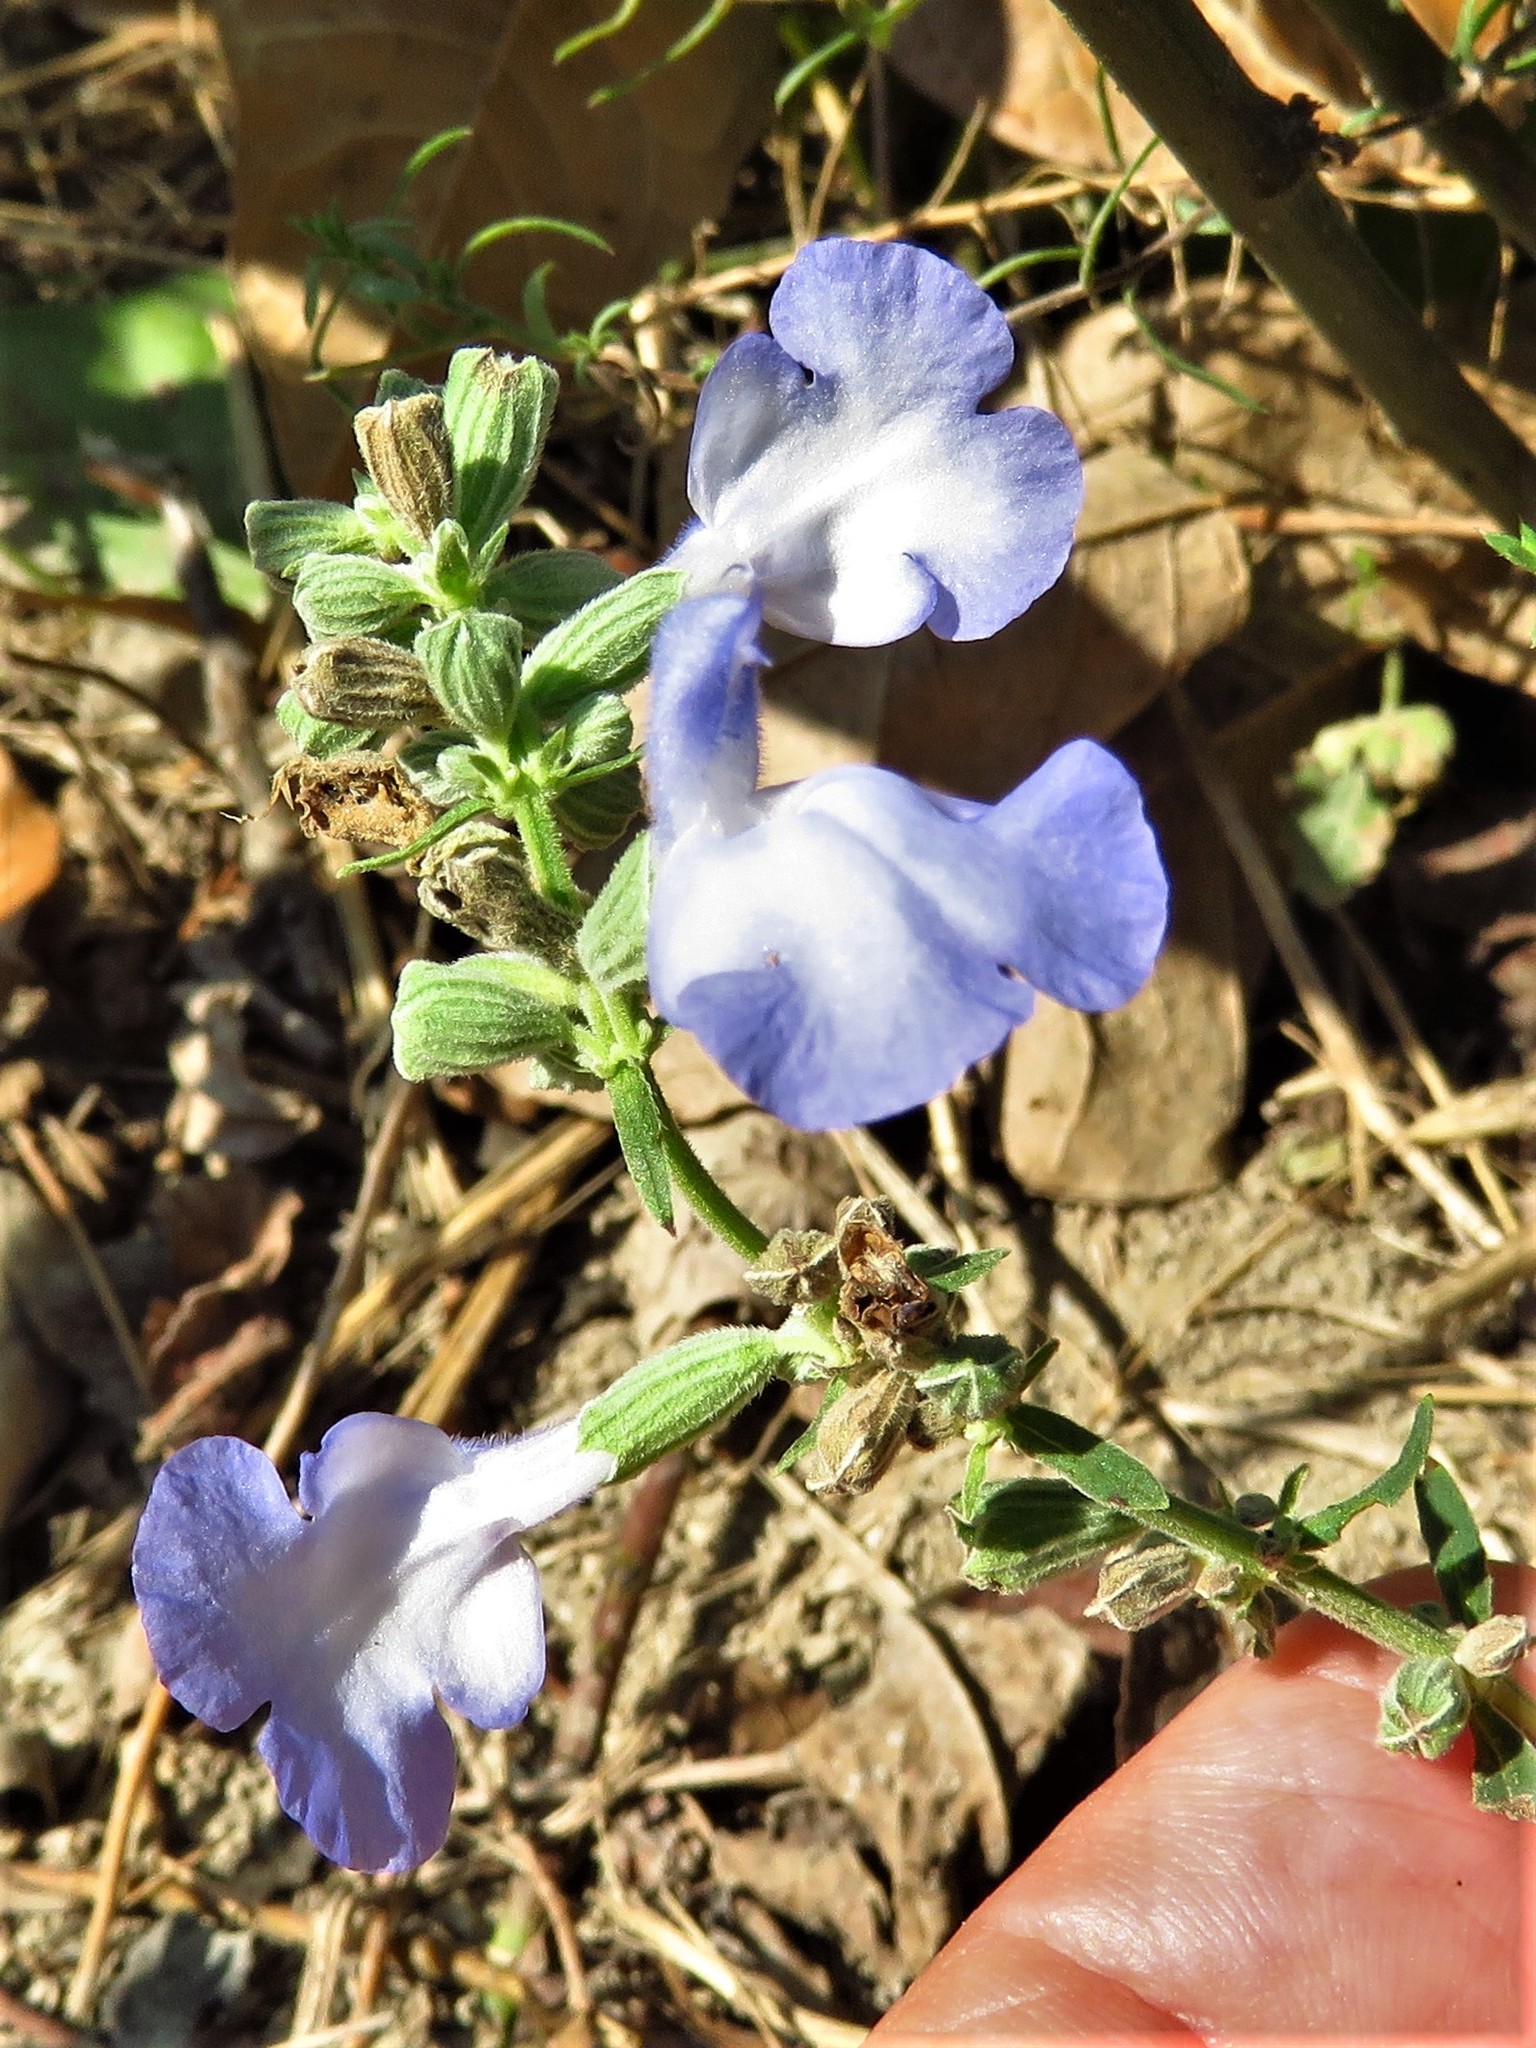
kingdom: Plantae
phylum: Tracheophyta
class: Magnoliopsida
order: Lamiales
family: Lamiaceae
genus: Salvia
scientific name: Salvia azurea
